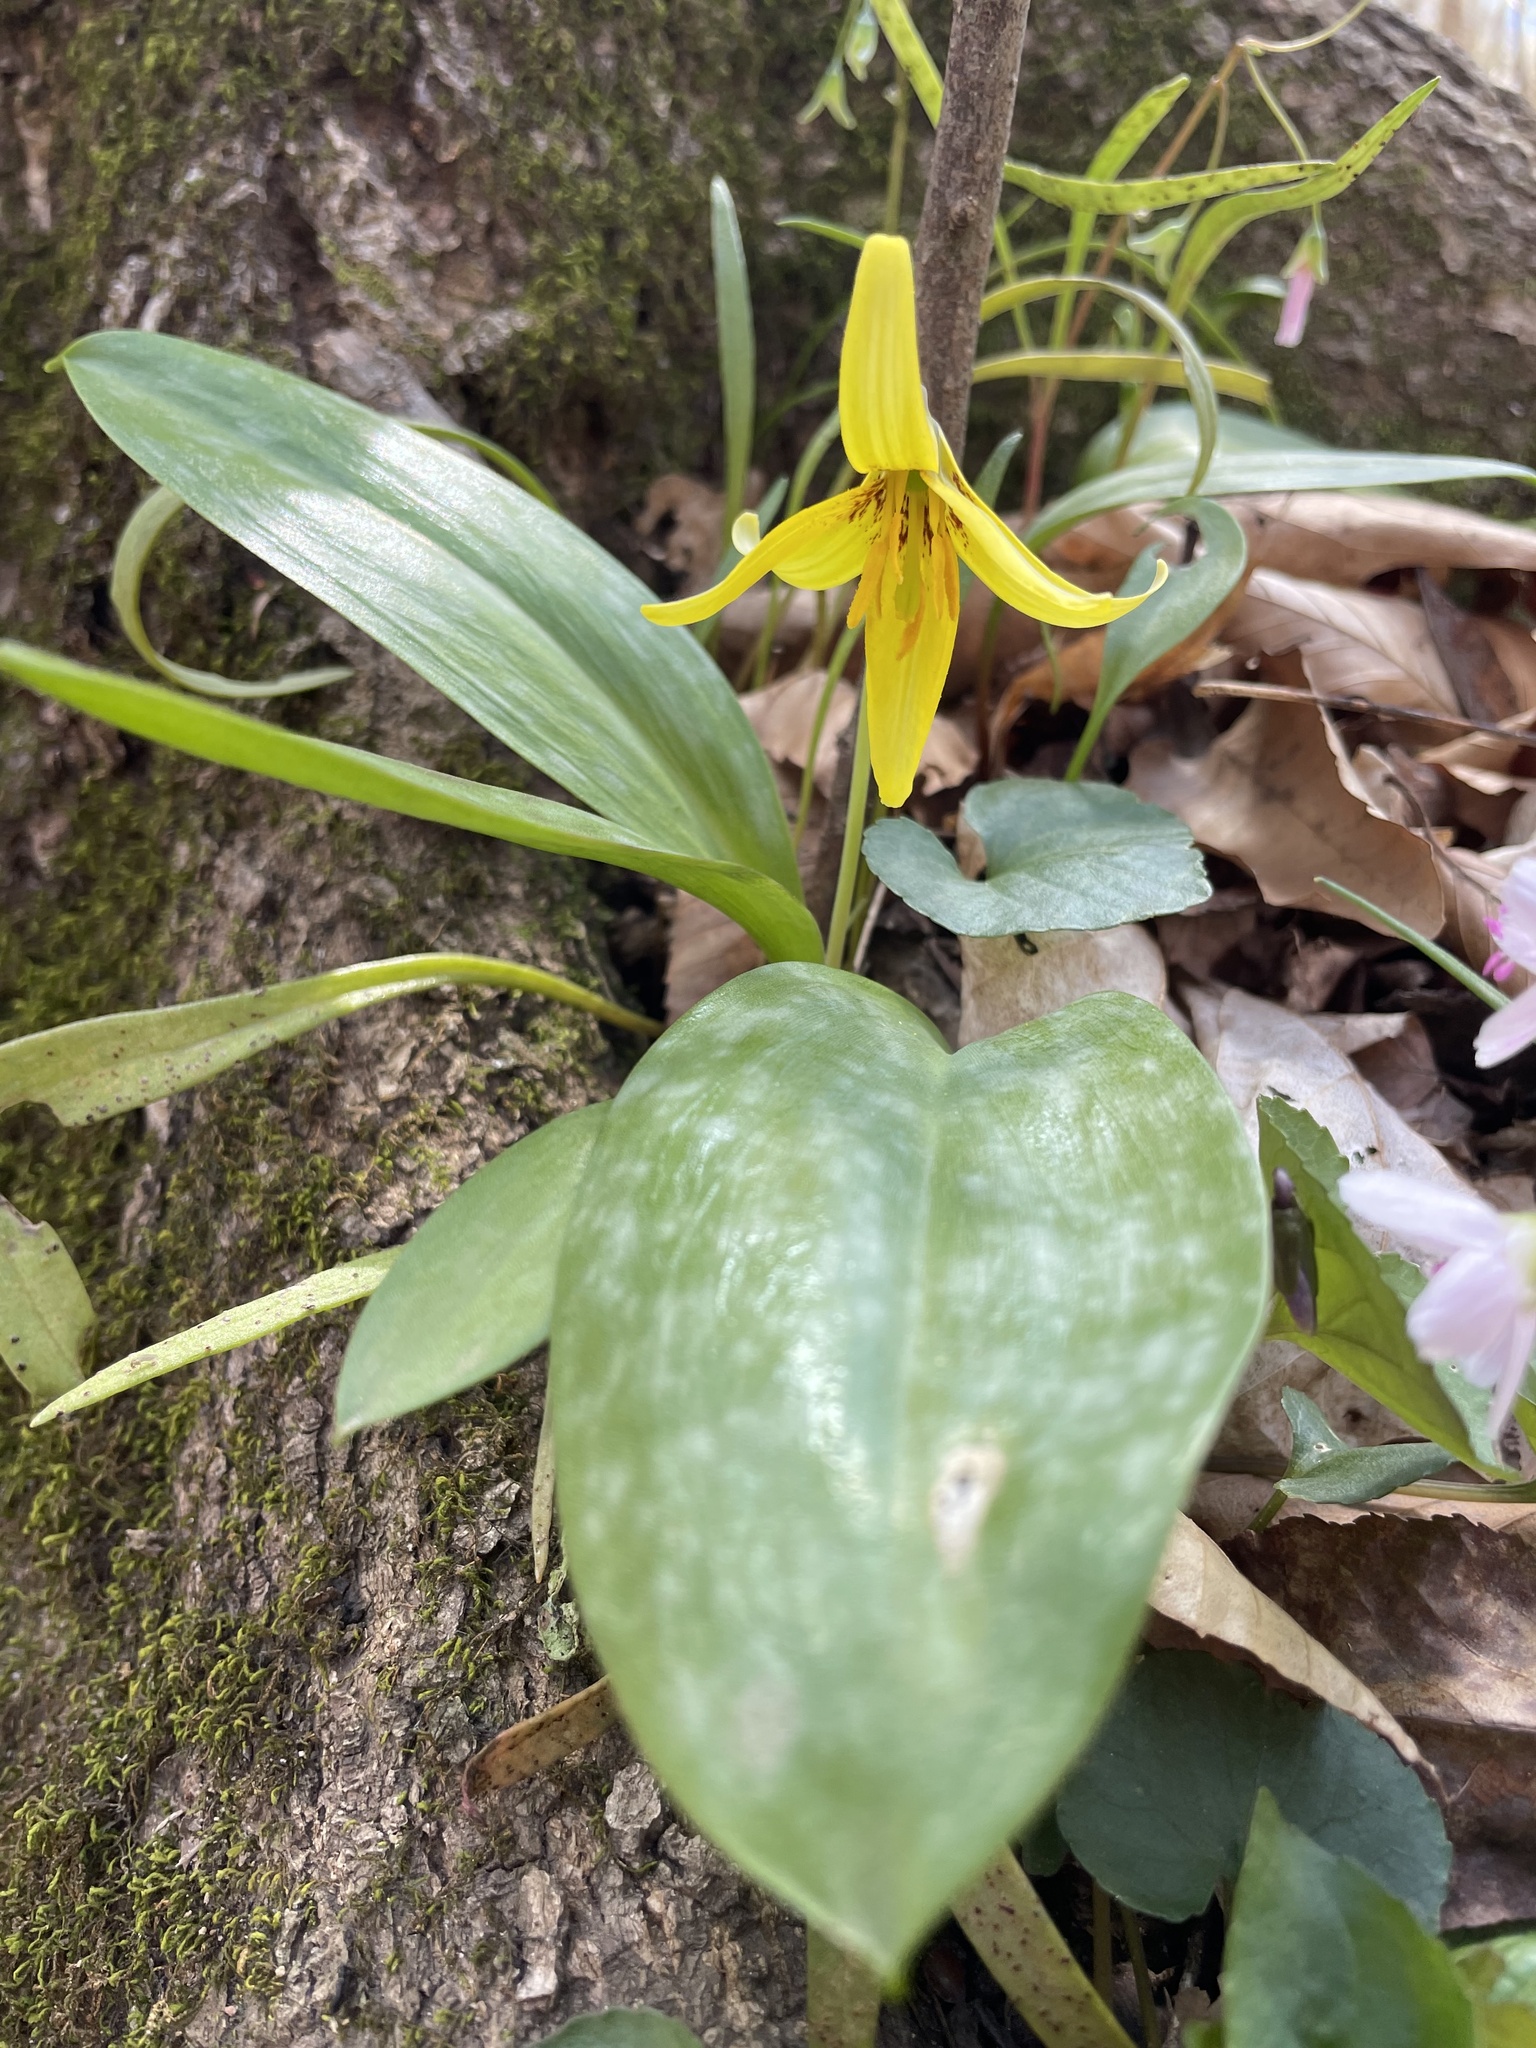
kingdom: Plantae
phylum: Tracheophyta
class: Liliopsida
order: Liliales
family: Liliaceae
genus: Erythronium
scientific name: Erythronium americanum
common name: Yellow adder's-tongue
